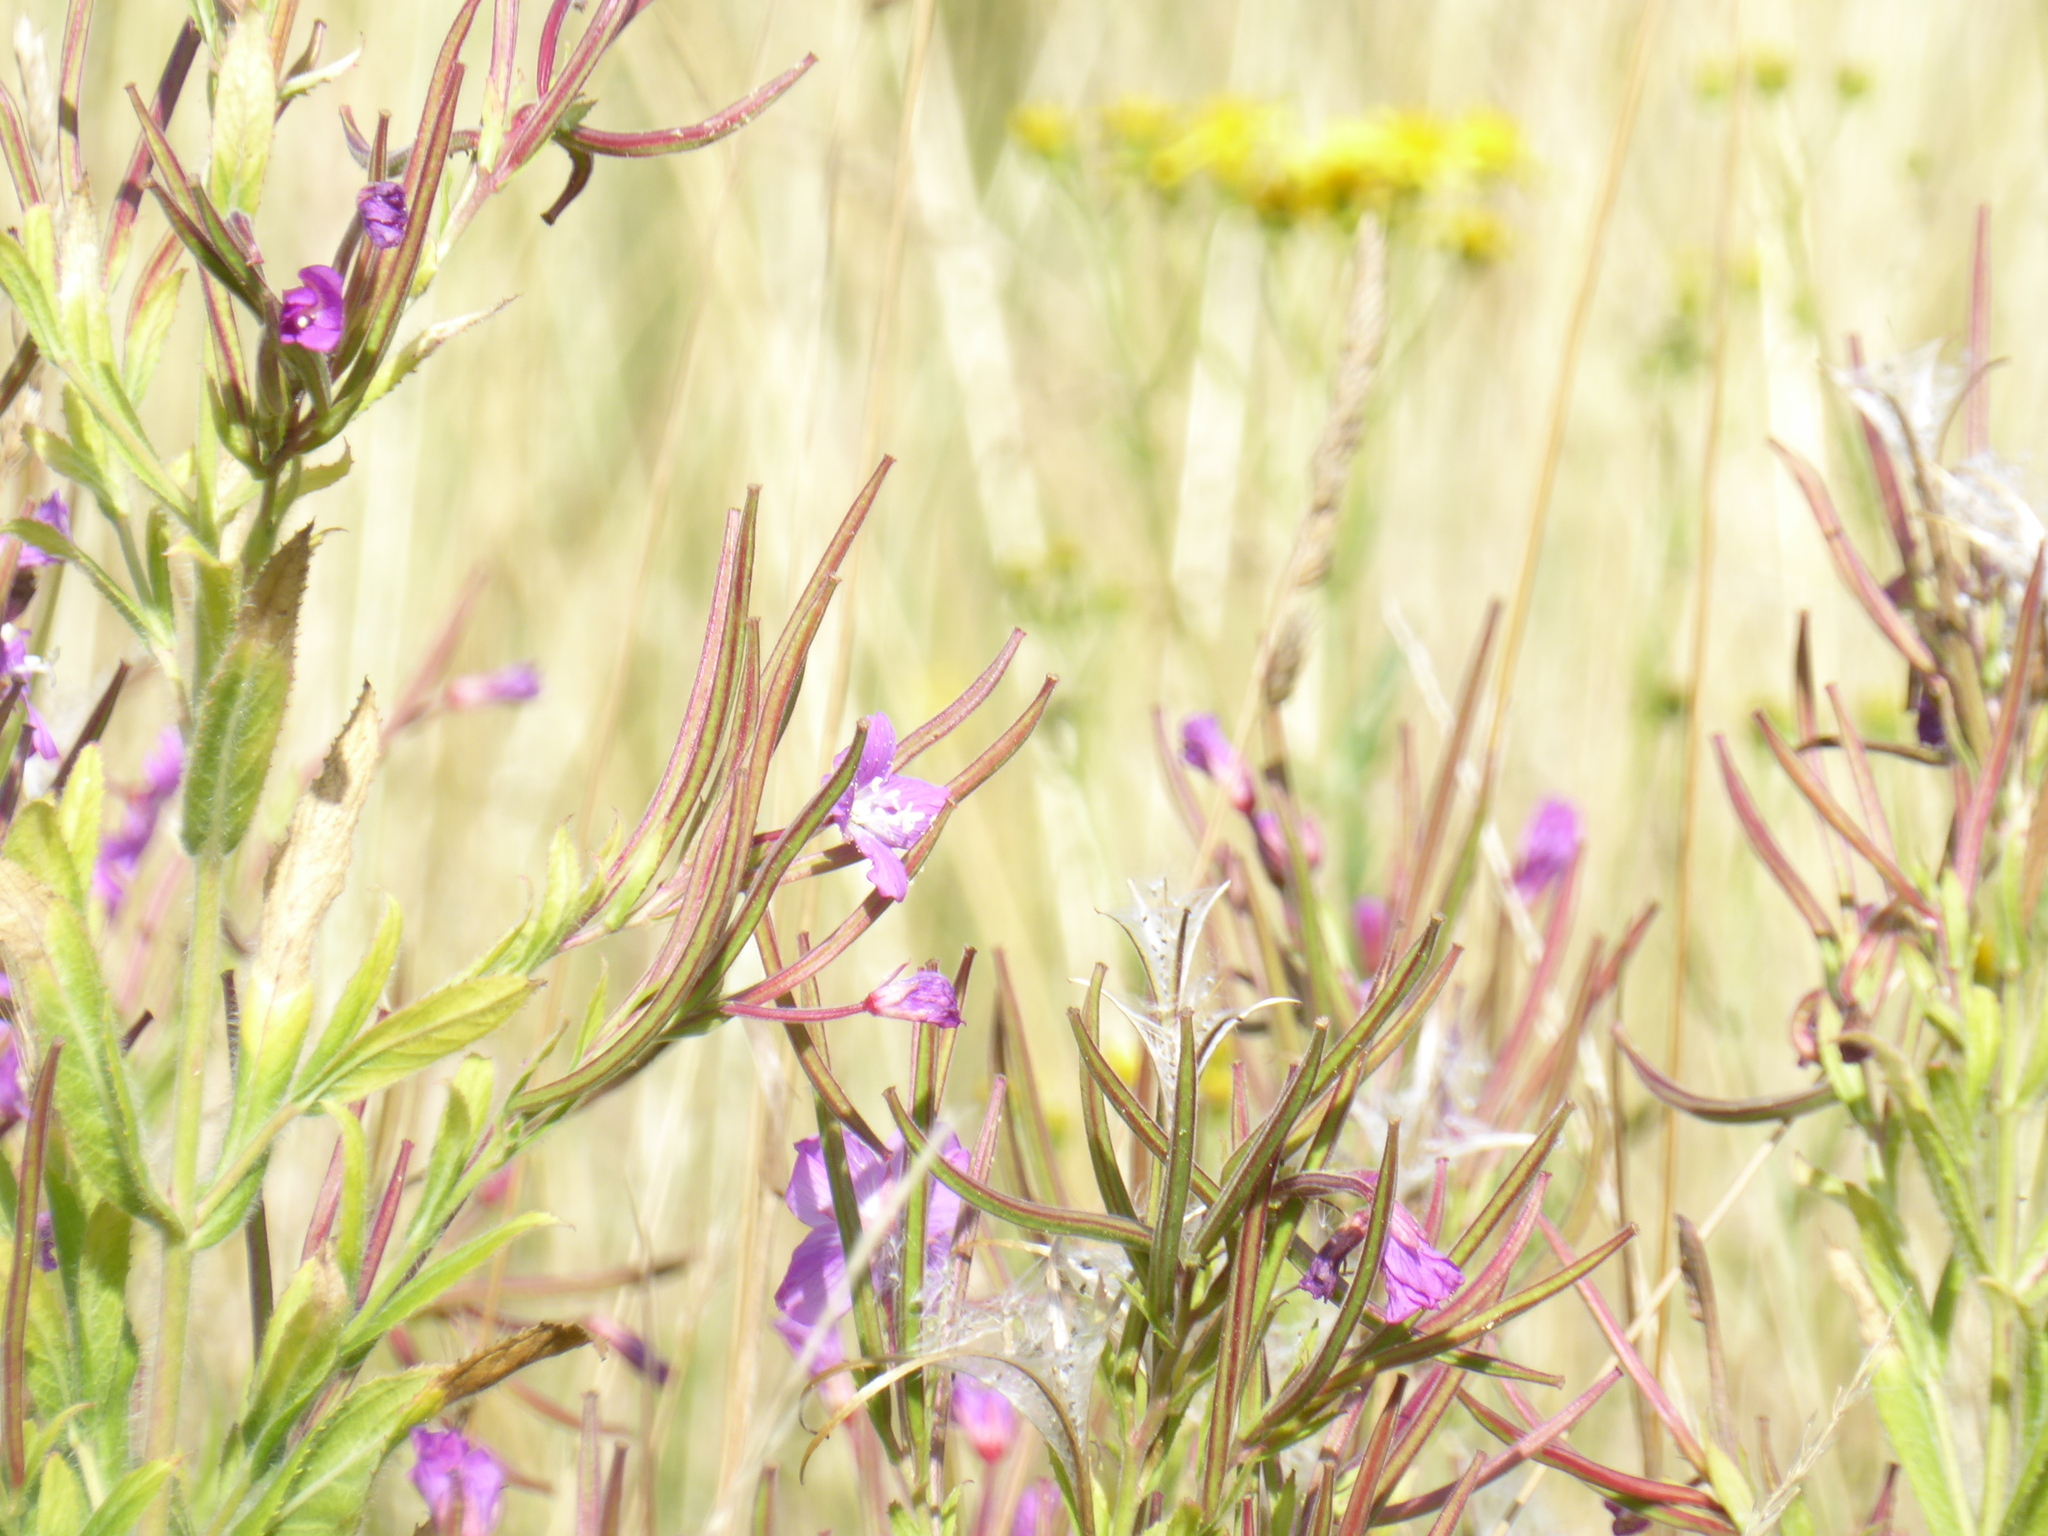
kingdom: Plantae
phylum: Tracheophyta
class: Magnoliopsida
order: Myrtales
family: Onagraceae
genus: Epilobium
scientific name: Epilobium hirsutum
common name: Great willowherb
